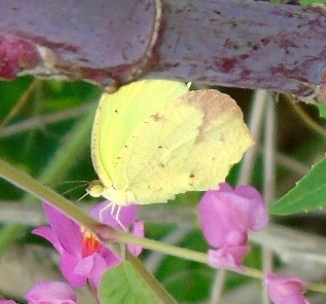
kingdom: Animalia
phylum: Arthropoda
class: Insecta
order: Lepidoptera
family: Pieridae
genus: Abaeis
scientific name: Abaeis boisduvaliana
